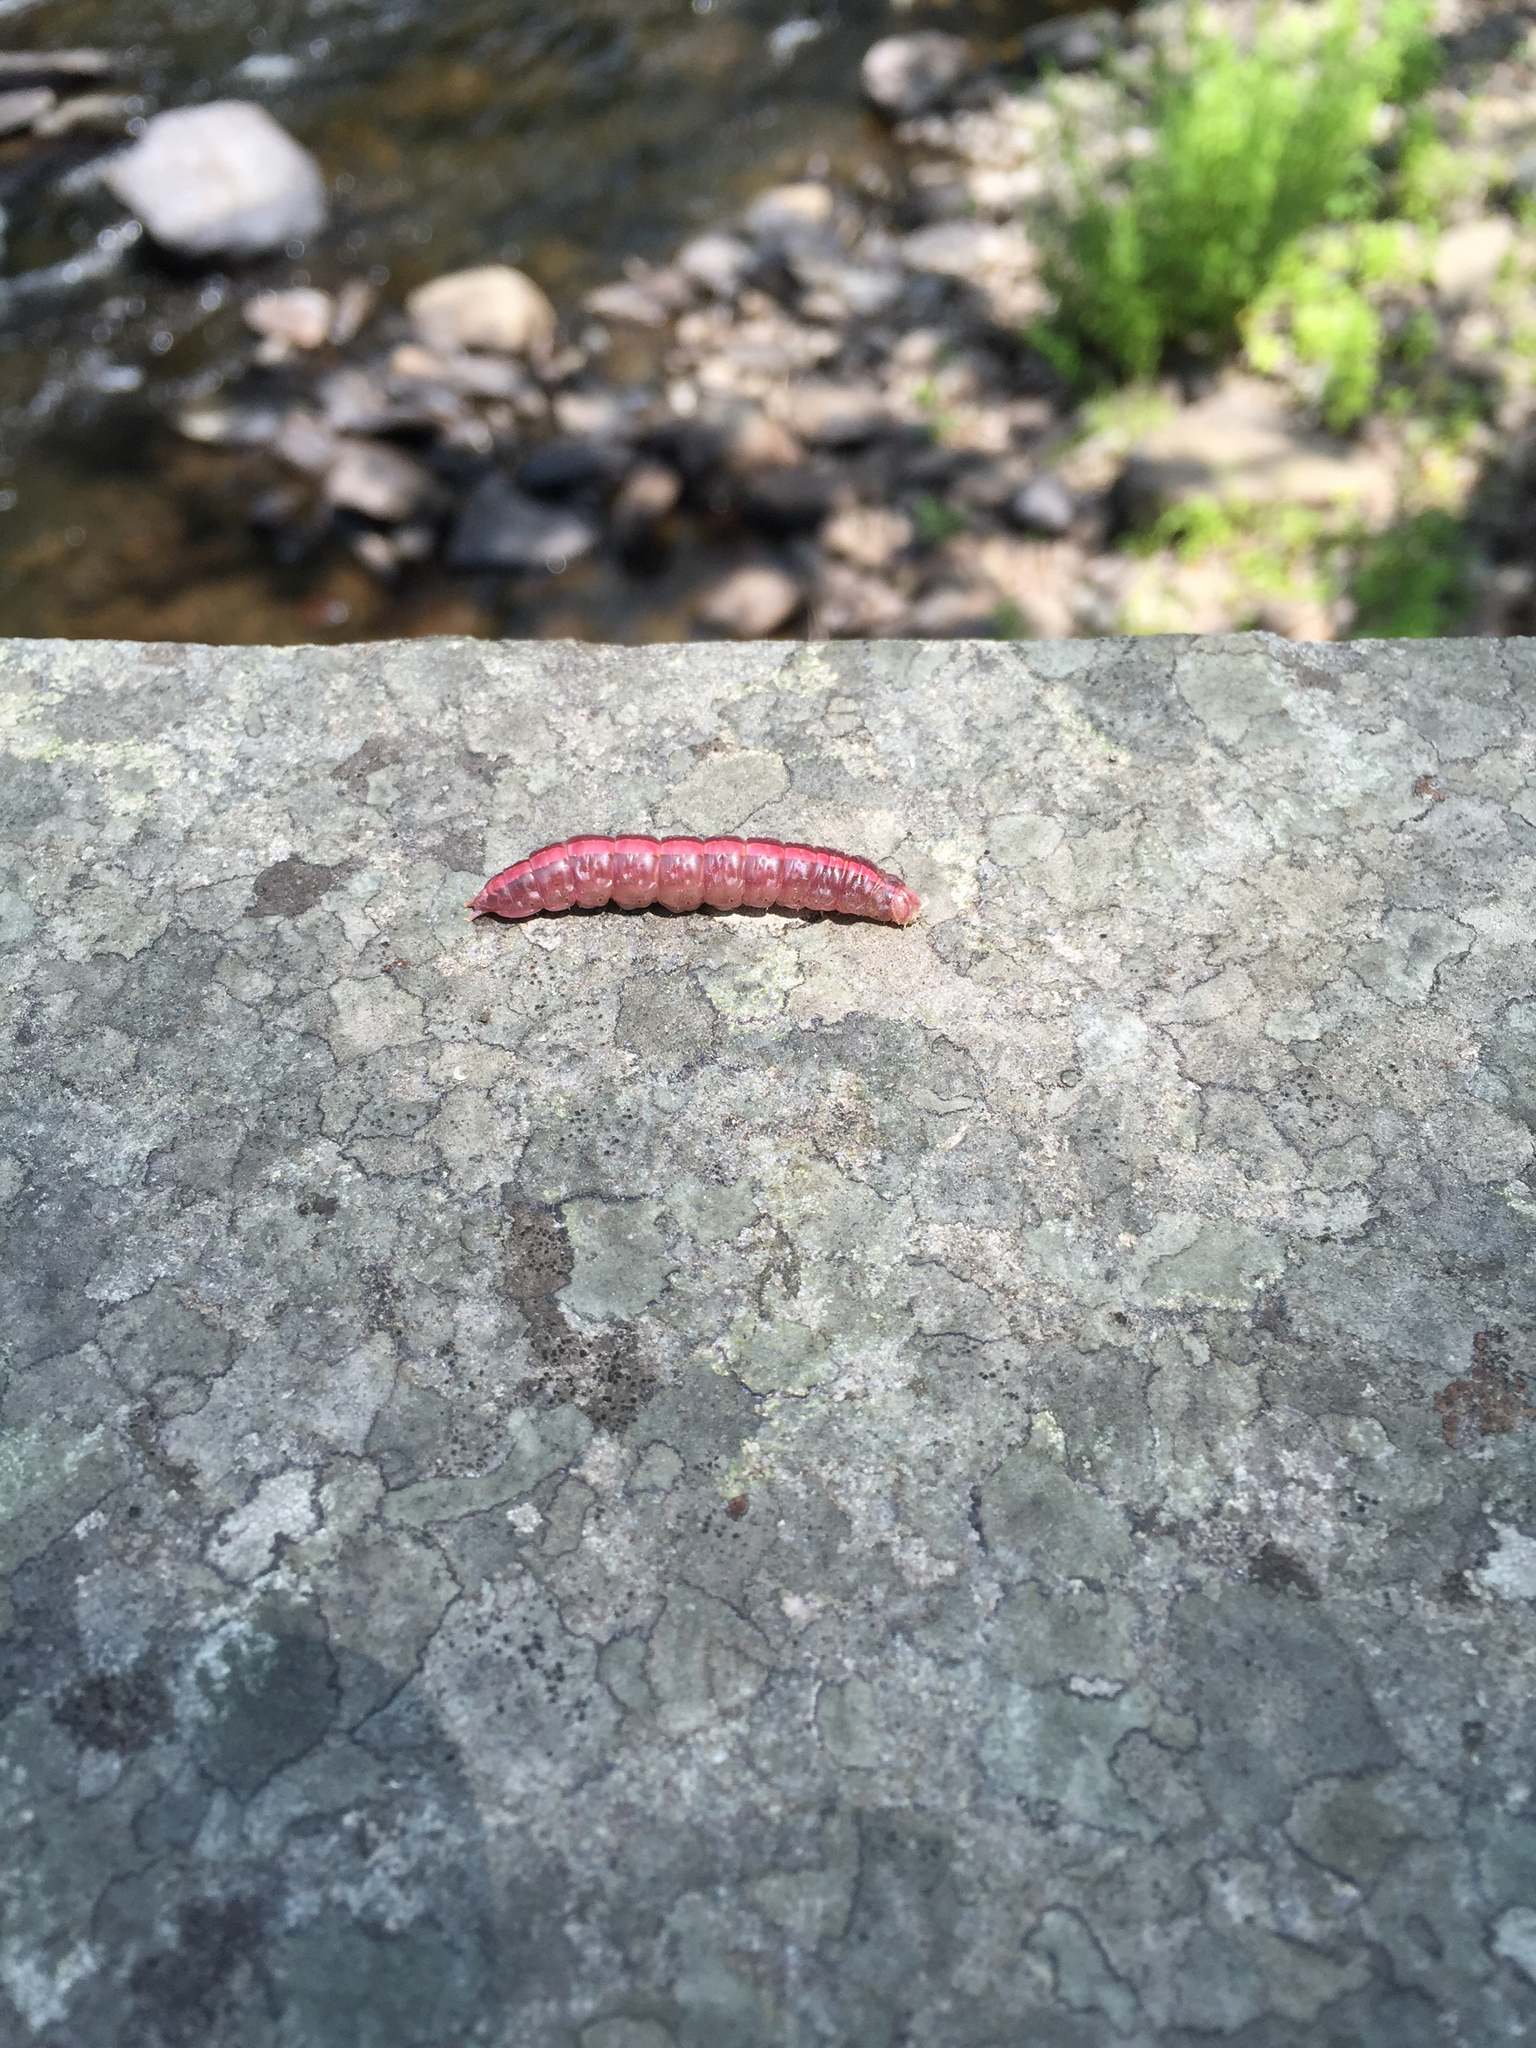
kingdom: Animalia
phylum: Arthropoda
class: Insecta
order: Lepidoptera
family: Notodontidae
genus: Misogada
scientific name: Misogada unicolor
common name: Drab prominent
